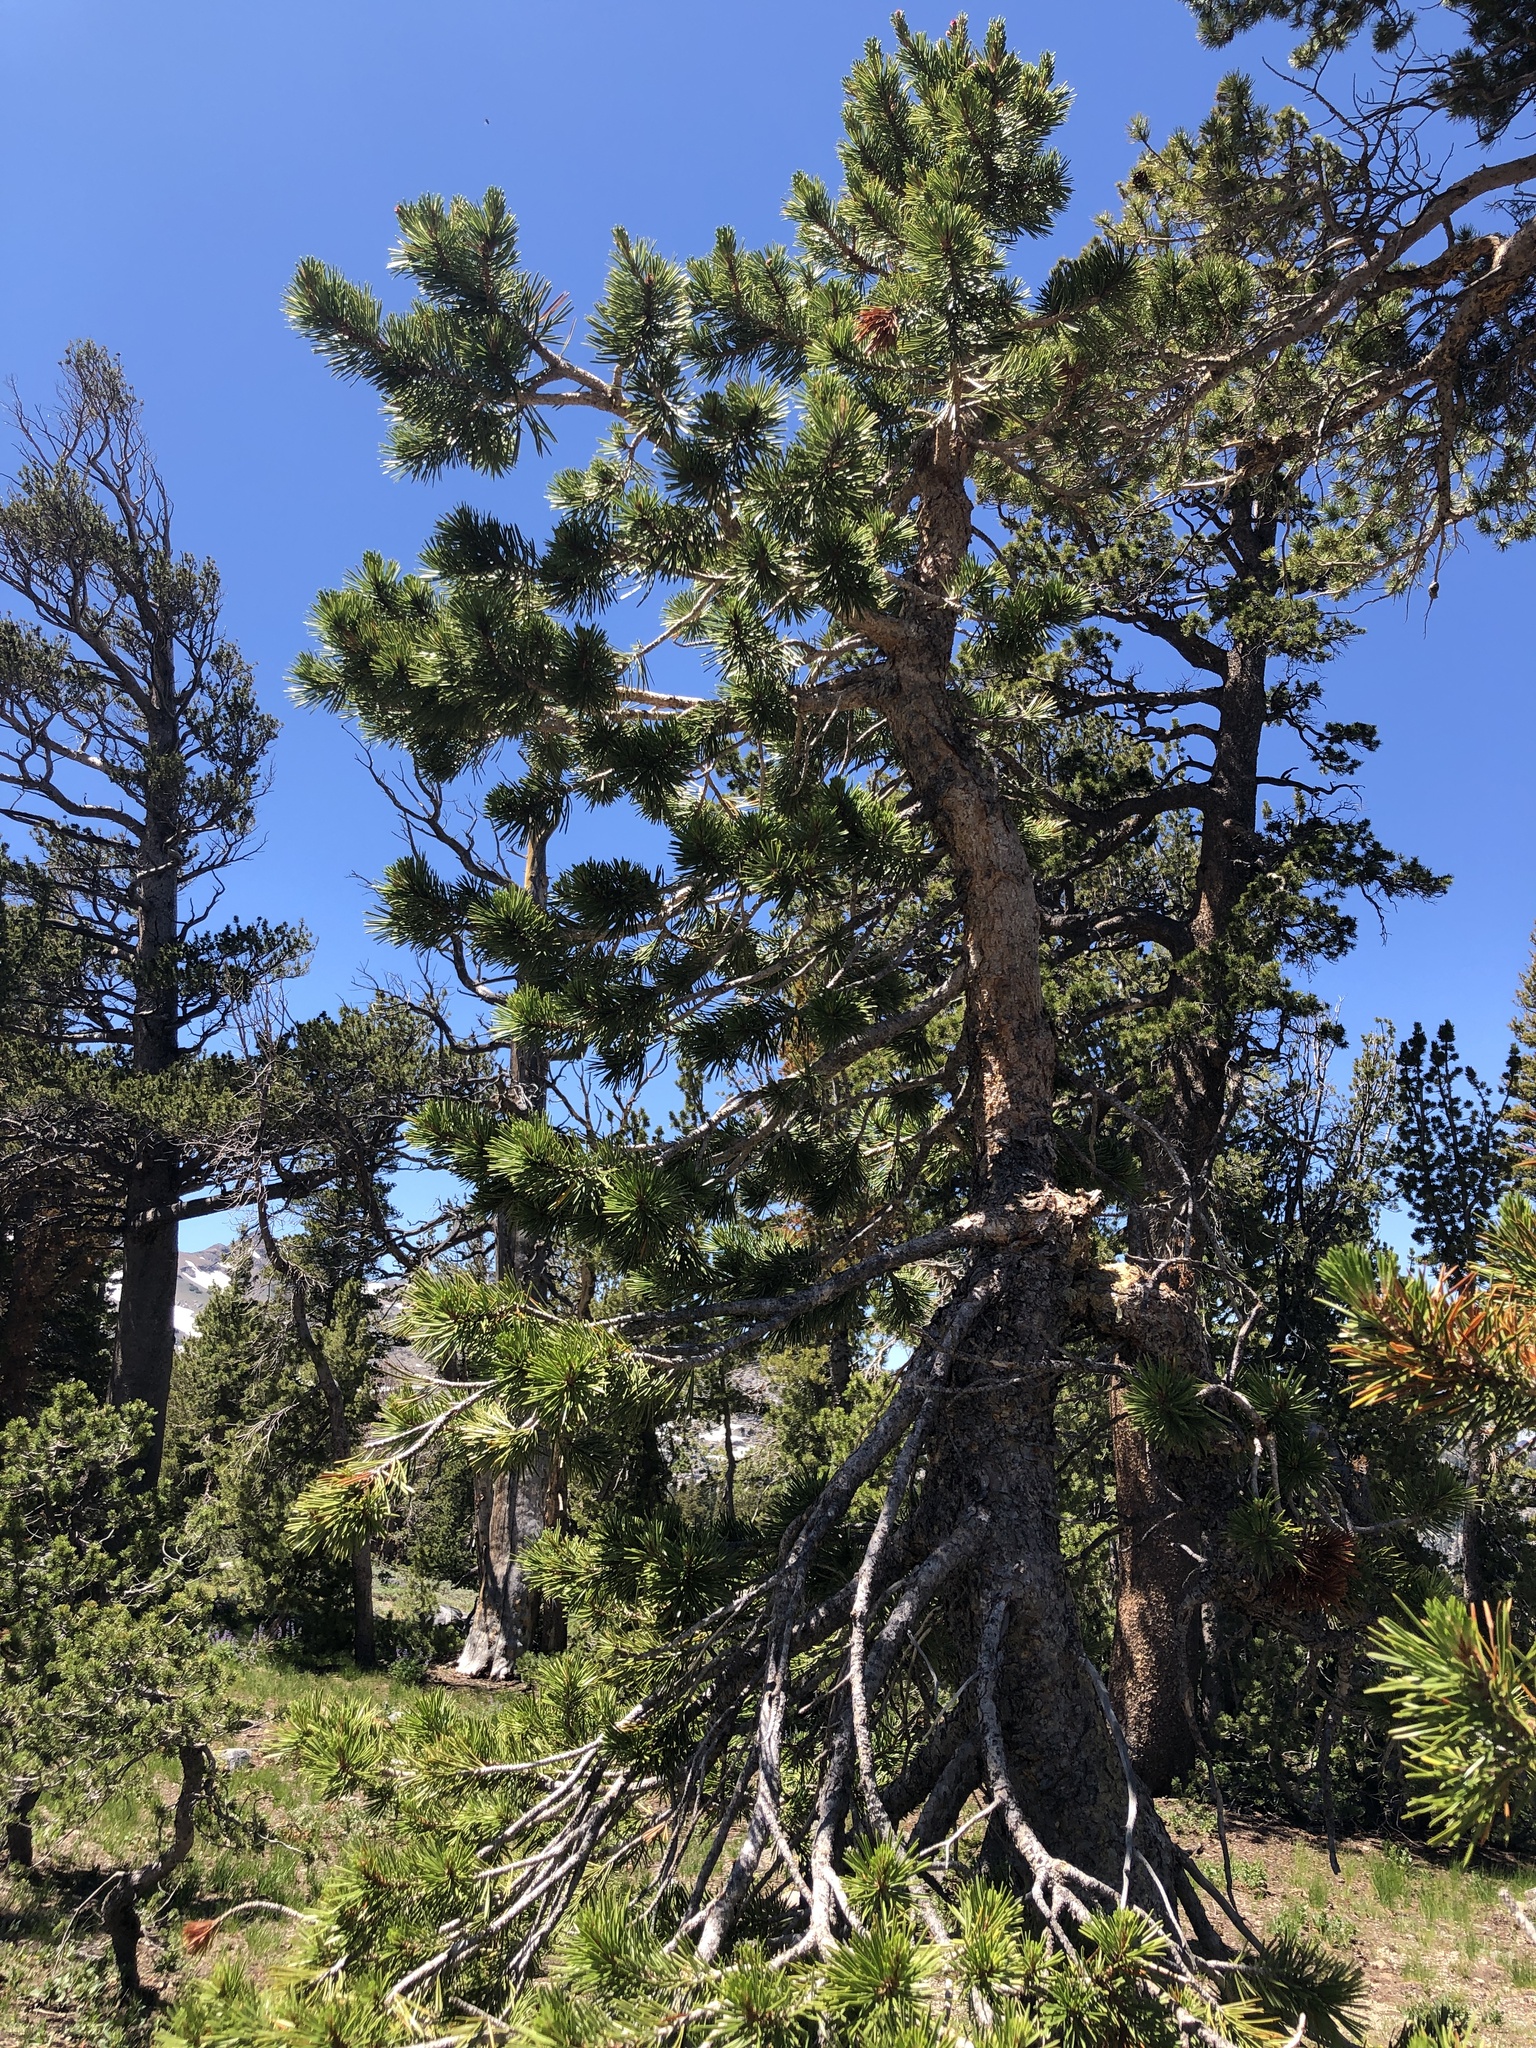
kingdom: Plantae
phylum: Tracheophyta
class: Pinopsida
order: Pinales
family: Pinaceae
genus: Pinus
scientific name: Pinus contorta
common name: Lodgepole pine
